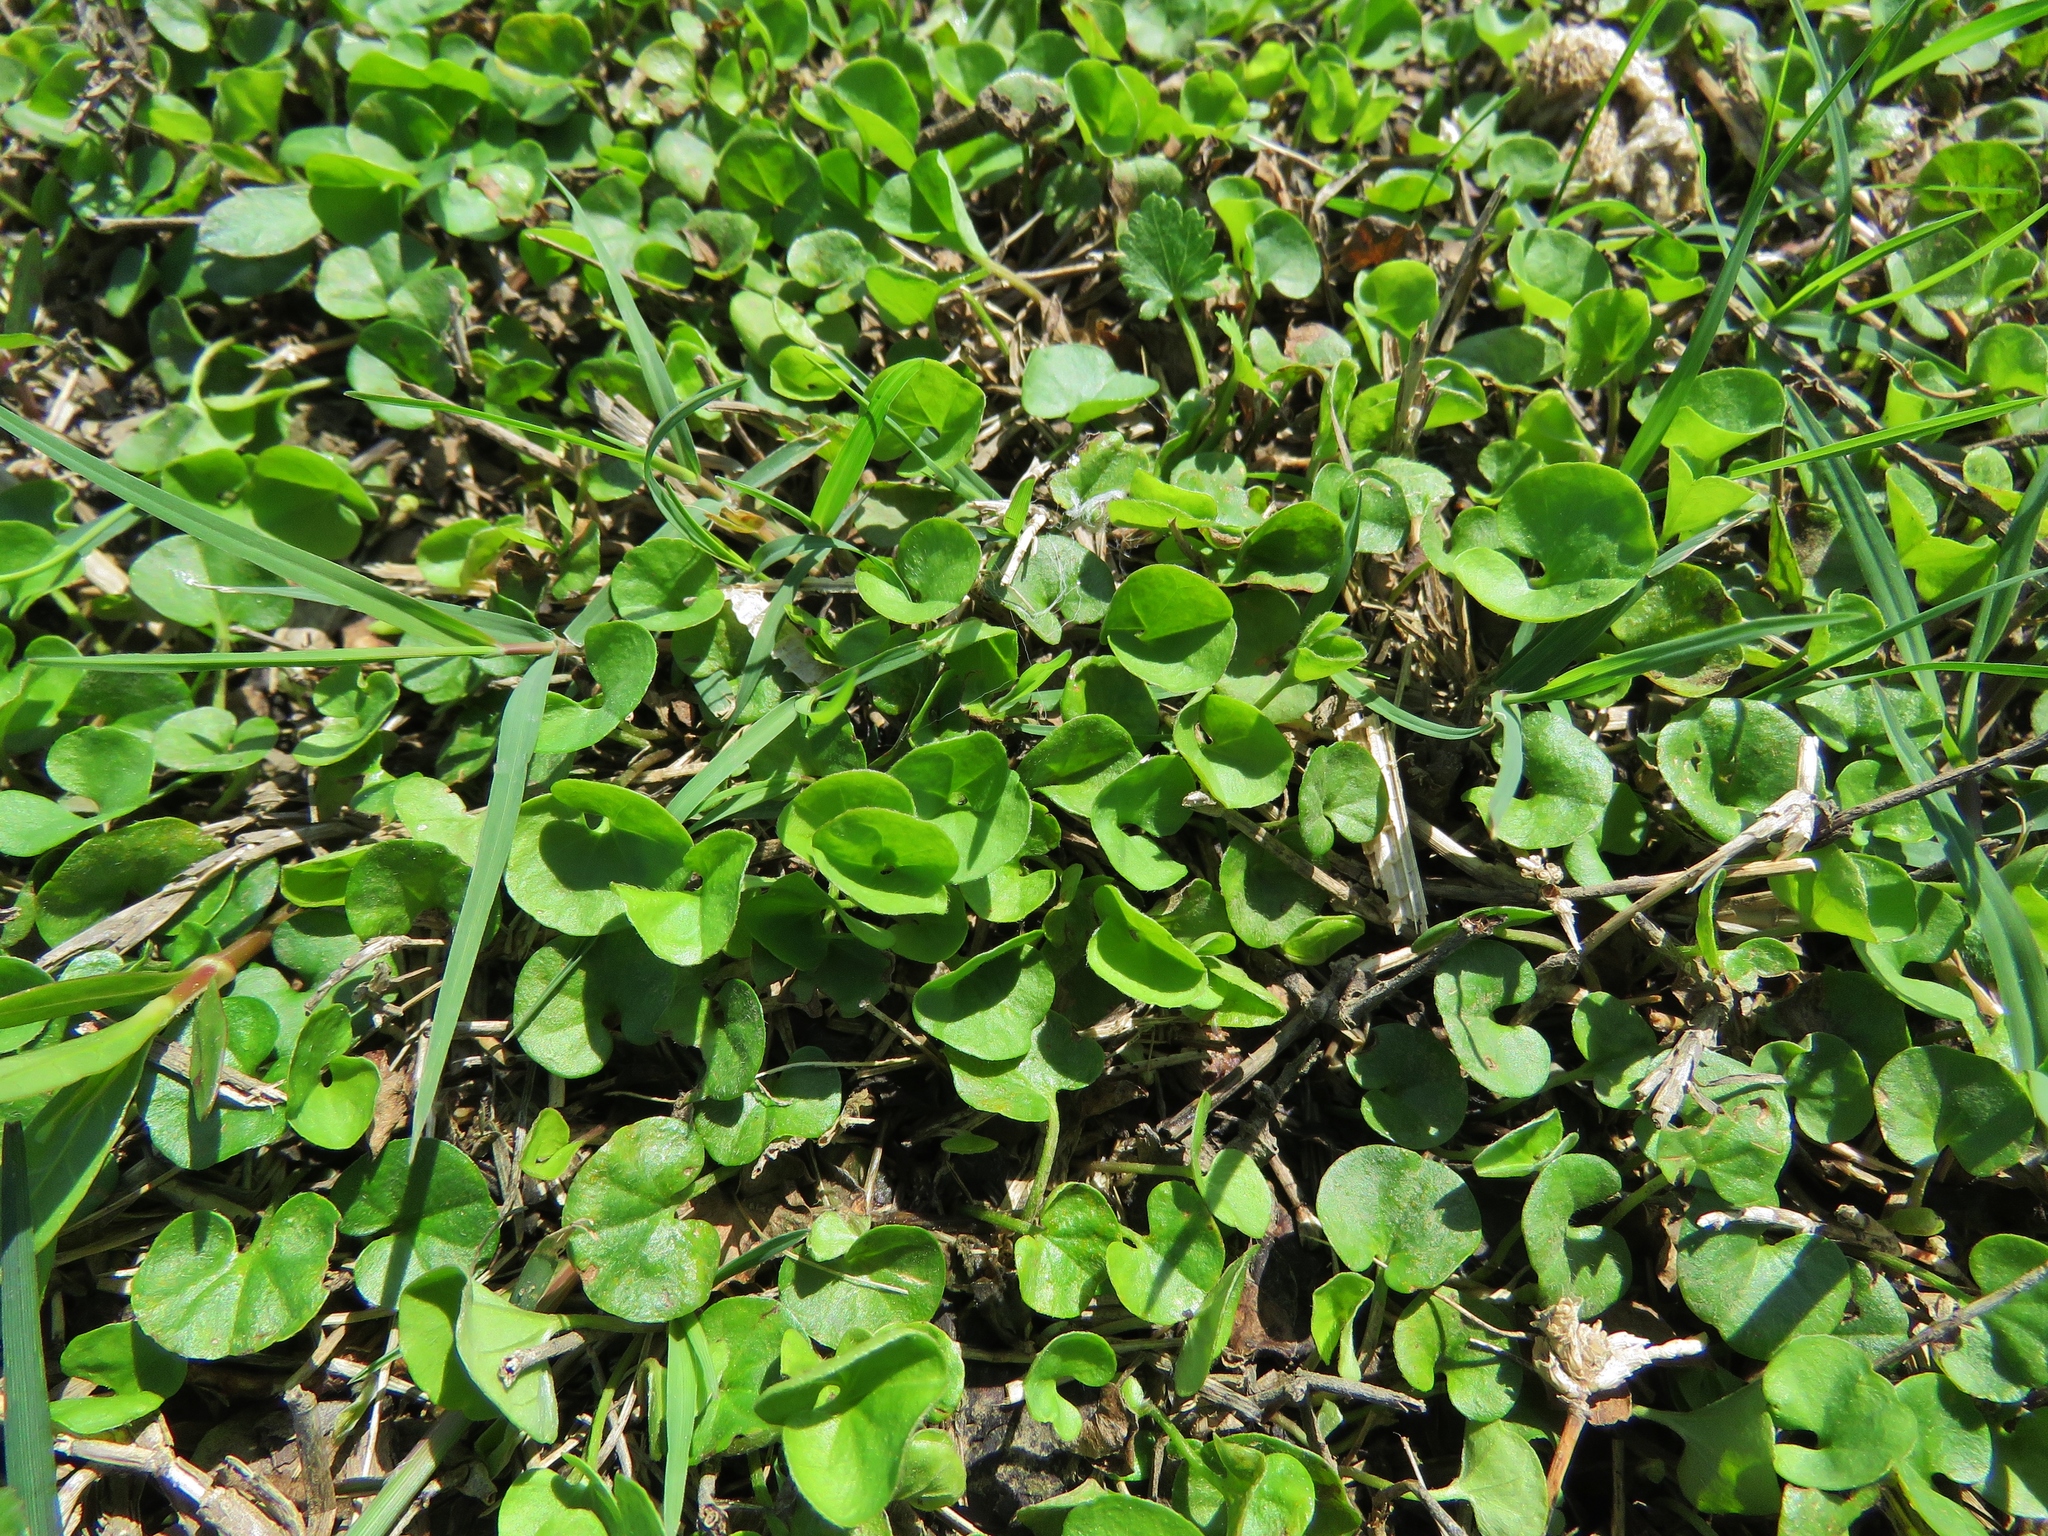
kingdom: Plantae
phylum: Tracheophyta
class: Magnoliopsida
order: Solanales
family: Convolvulaceae
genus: Dichondra
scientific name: Dichondra carolinensis
